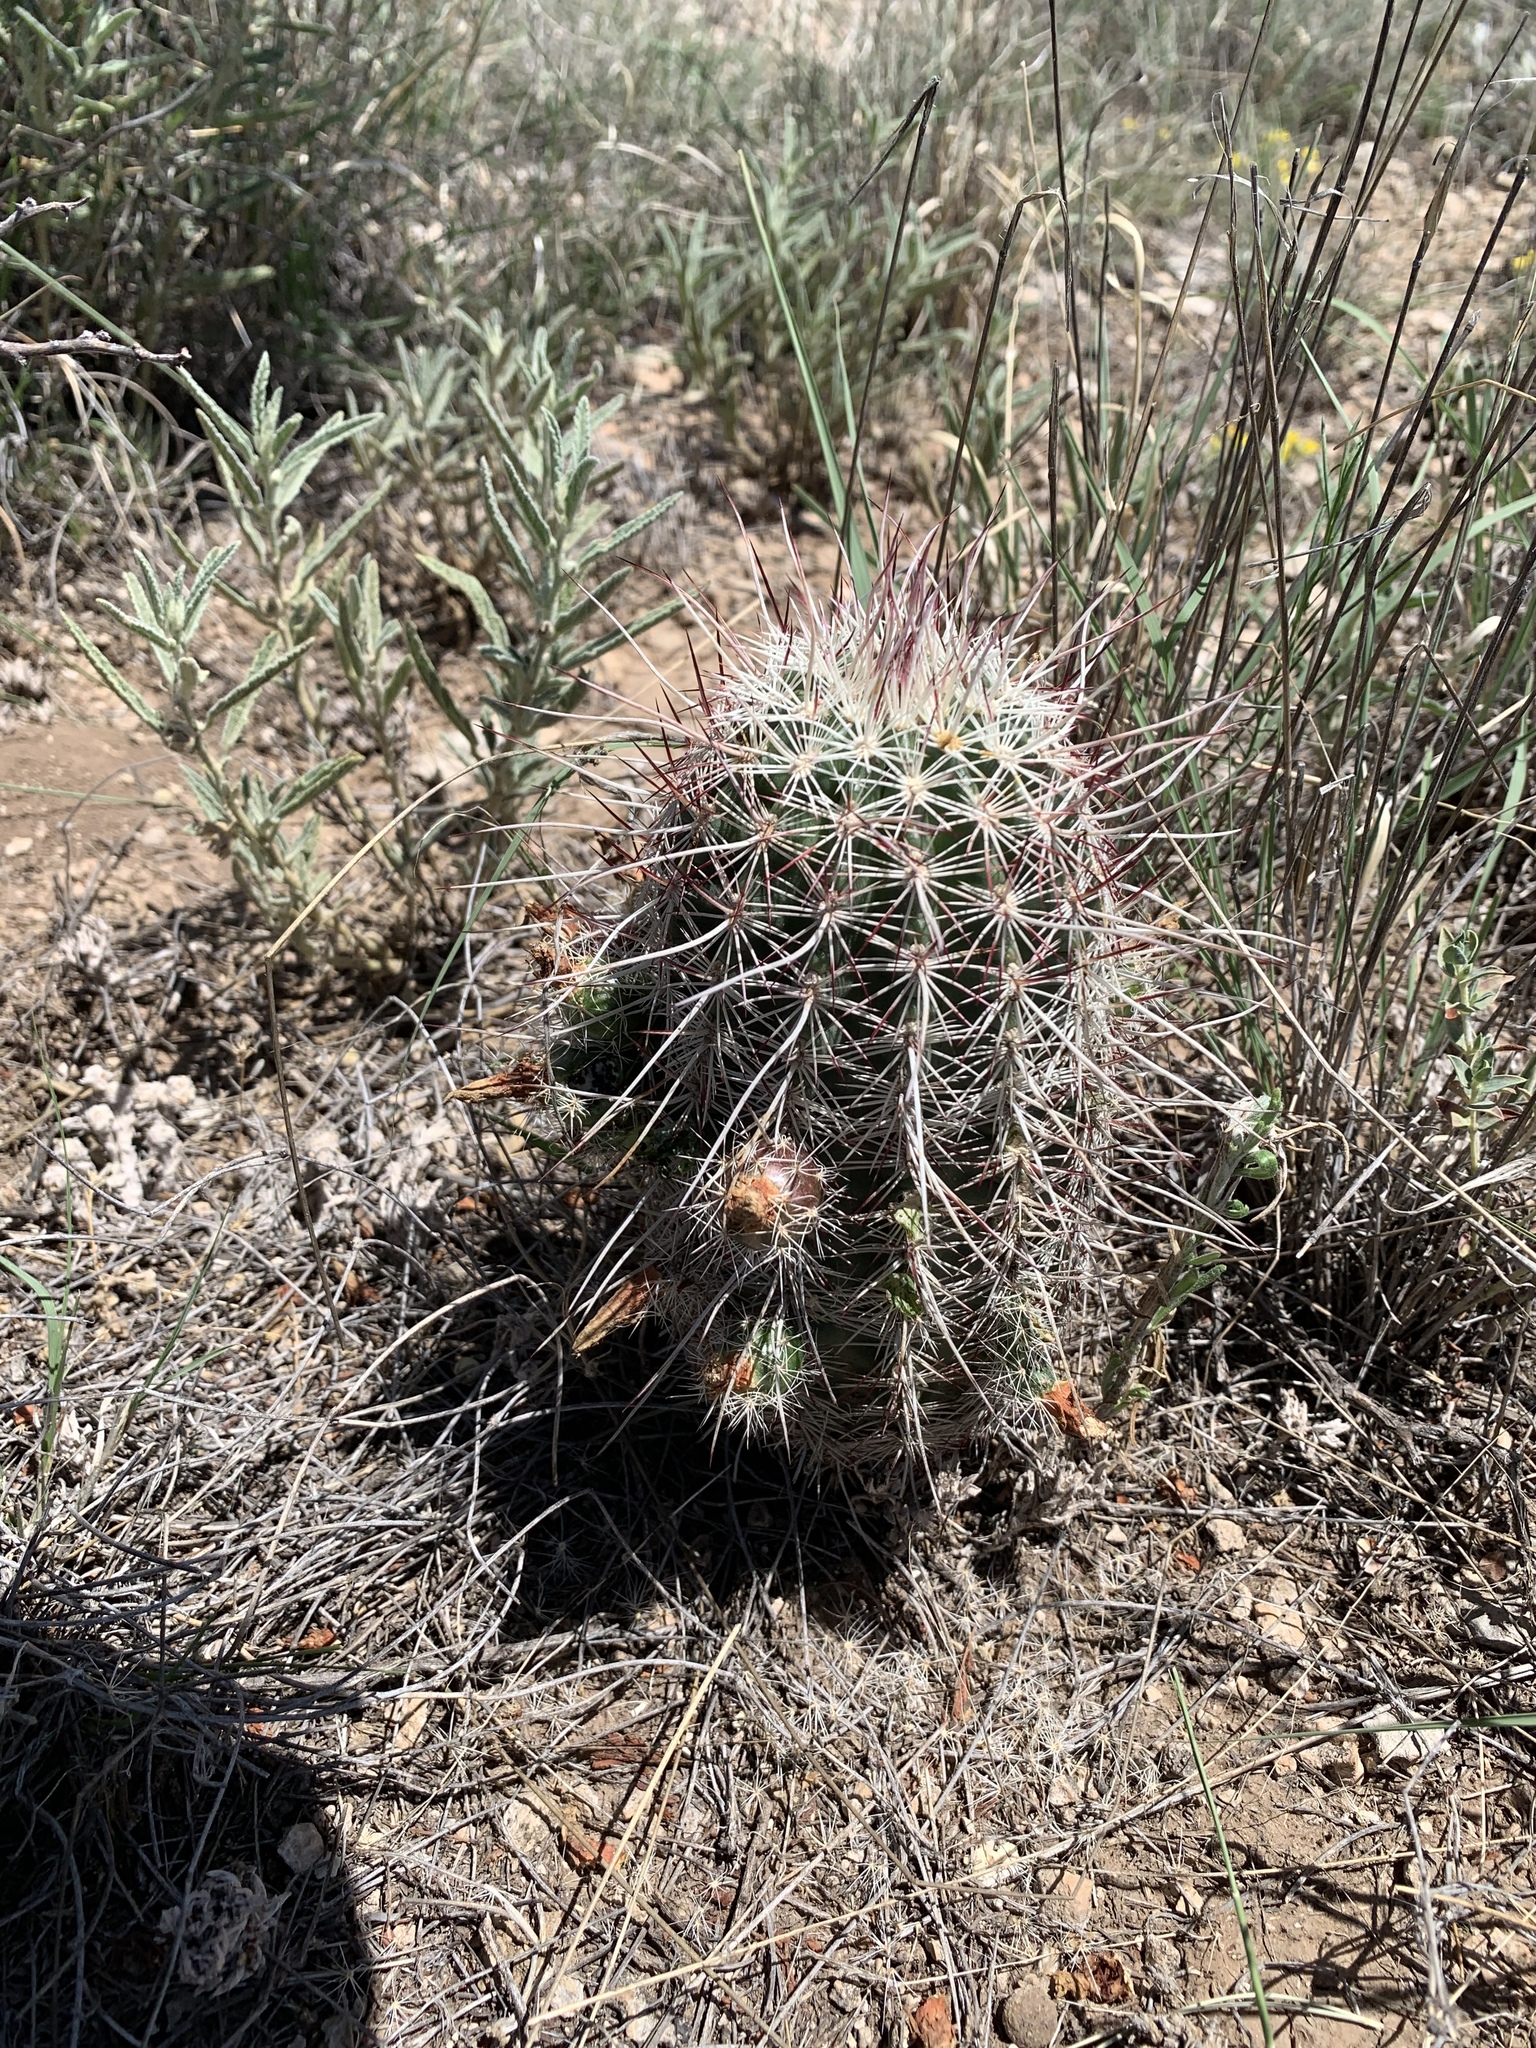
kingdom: Plantae
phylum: Tracheophyta
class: Magnoliopsida
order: Caryophyllales
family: Cactaceae
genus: Echinocereus
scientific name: Echinocereus viridiflorus
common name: Nylon hedgehog cactus
